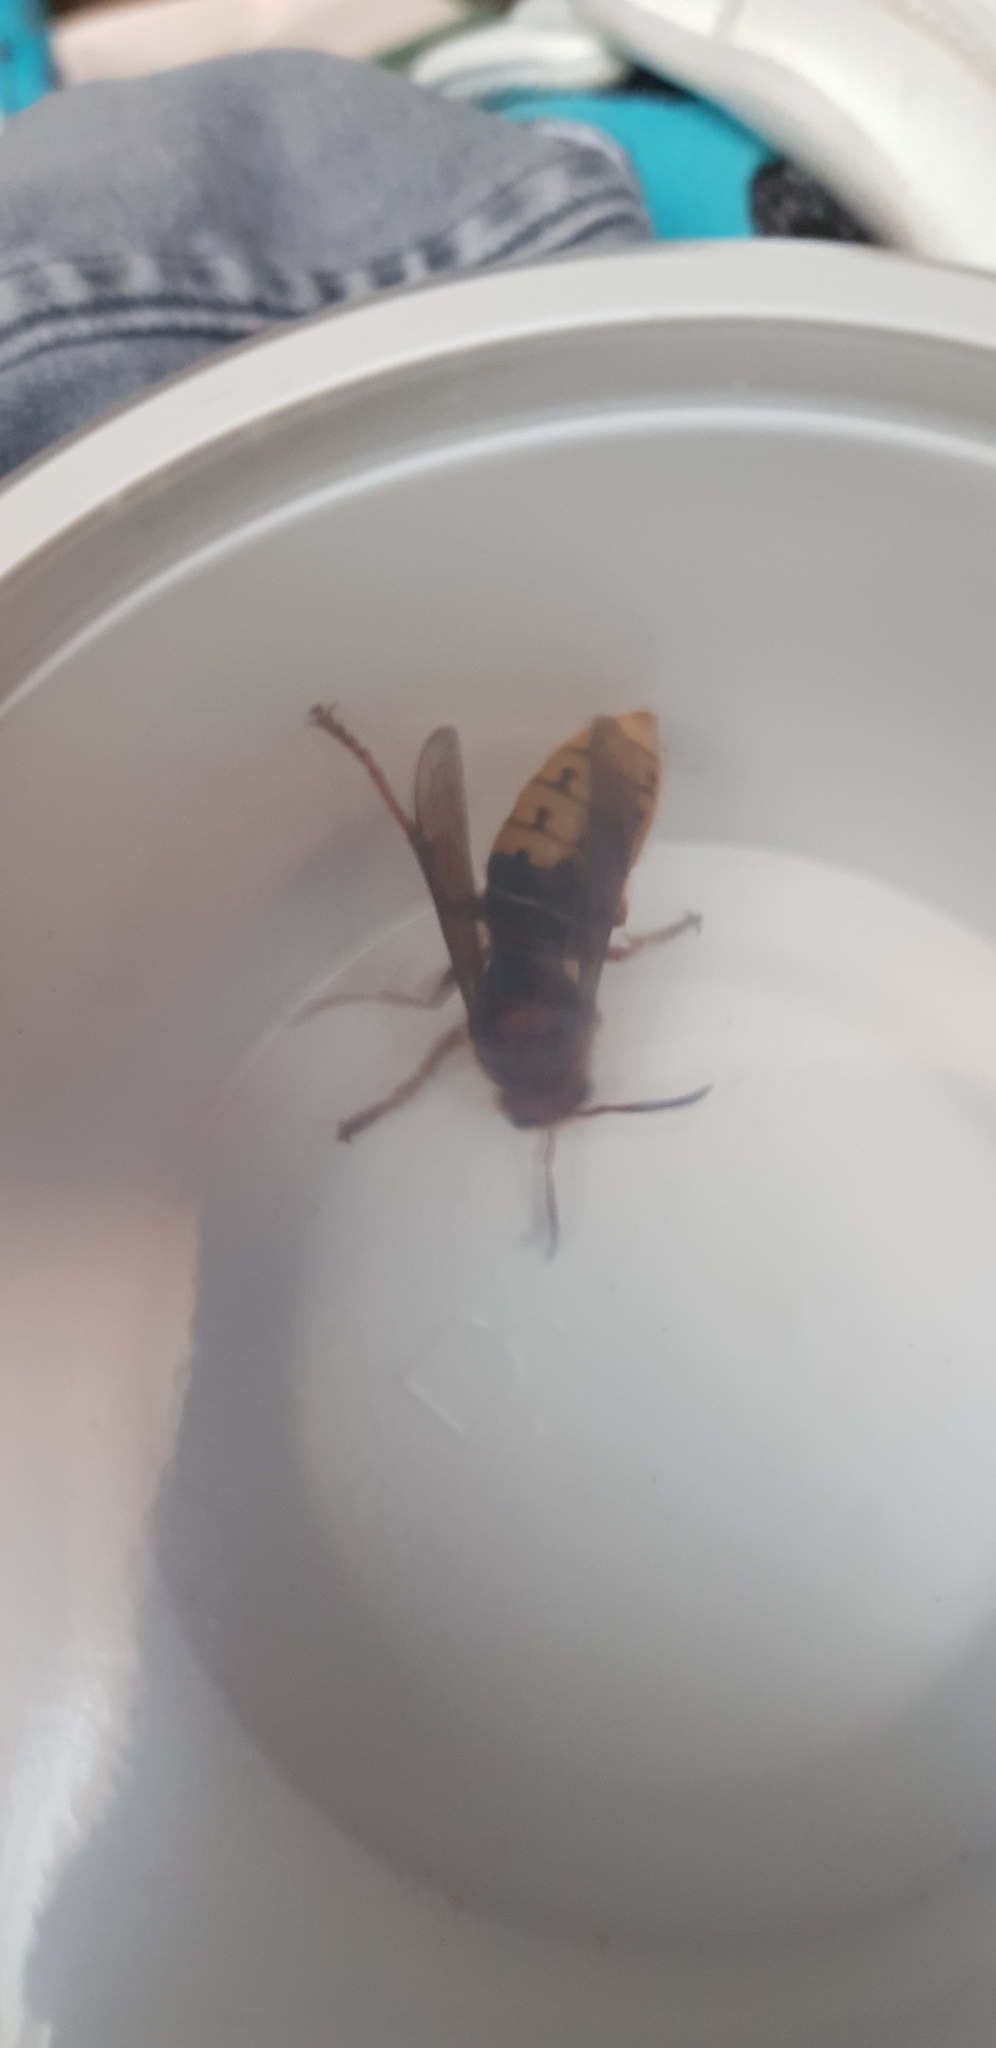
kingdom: Animalia
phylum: Arthropoda
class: Insecta
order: Hymenoptera
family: Vespidae
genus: Vespa
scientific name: Vespa crabro
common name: Hornet
